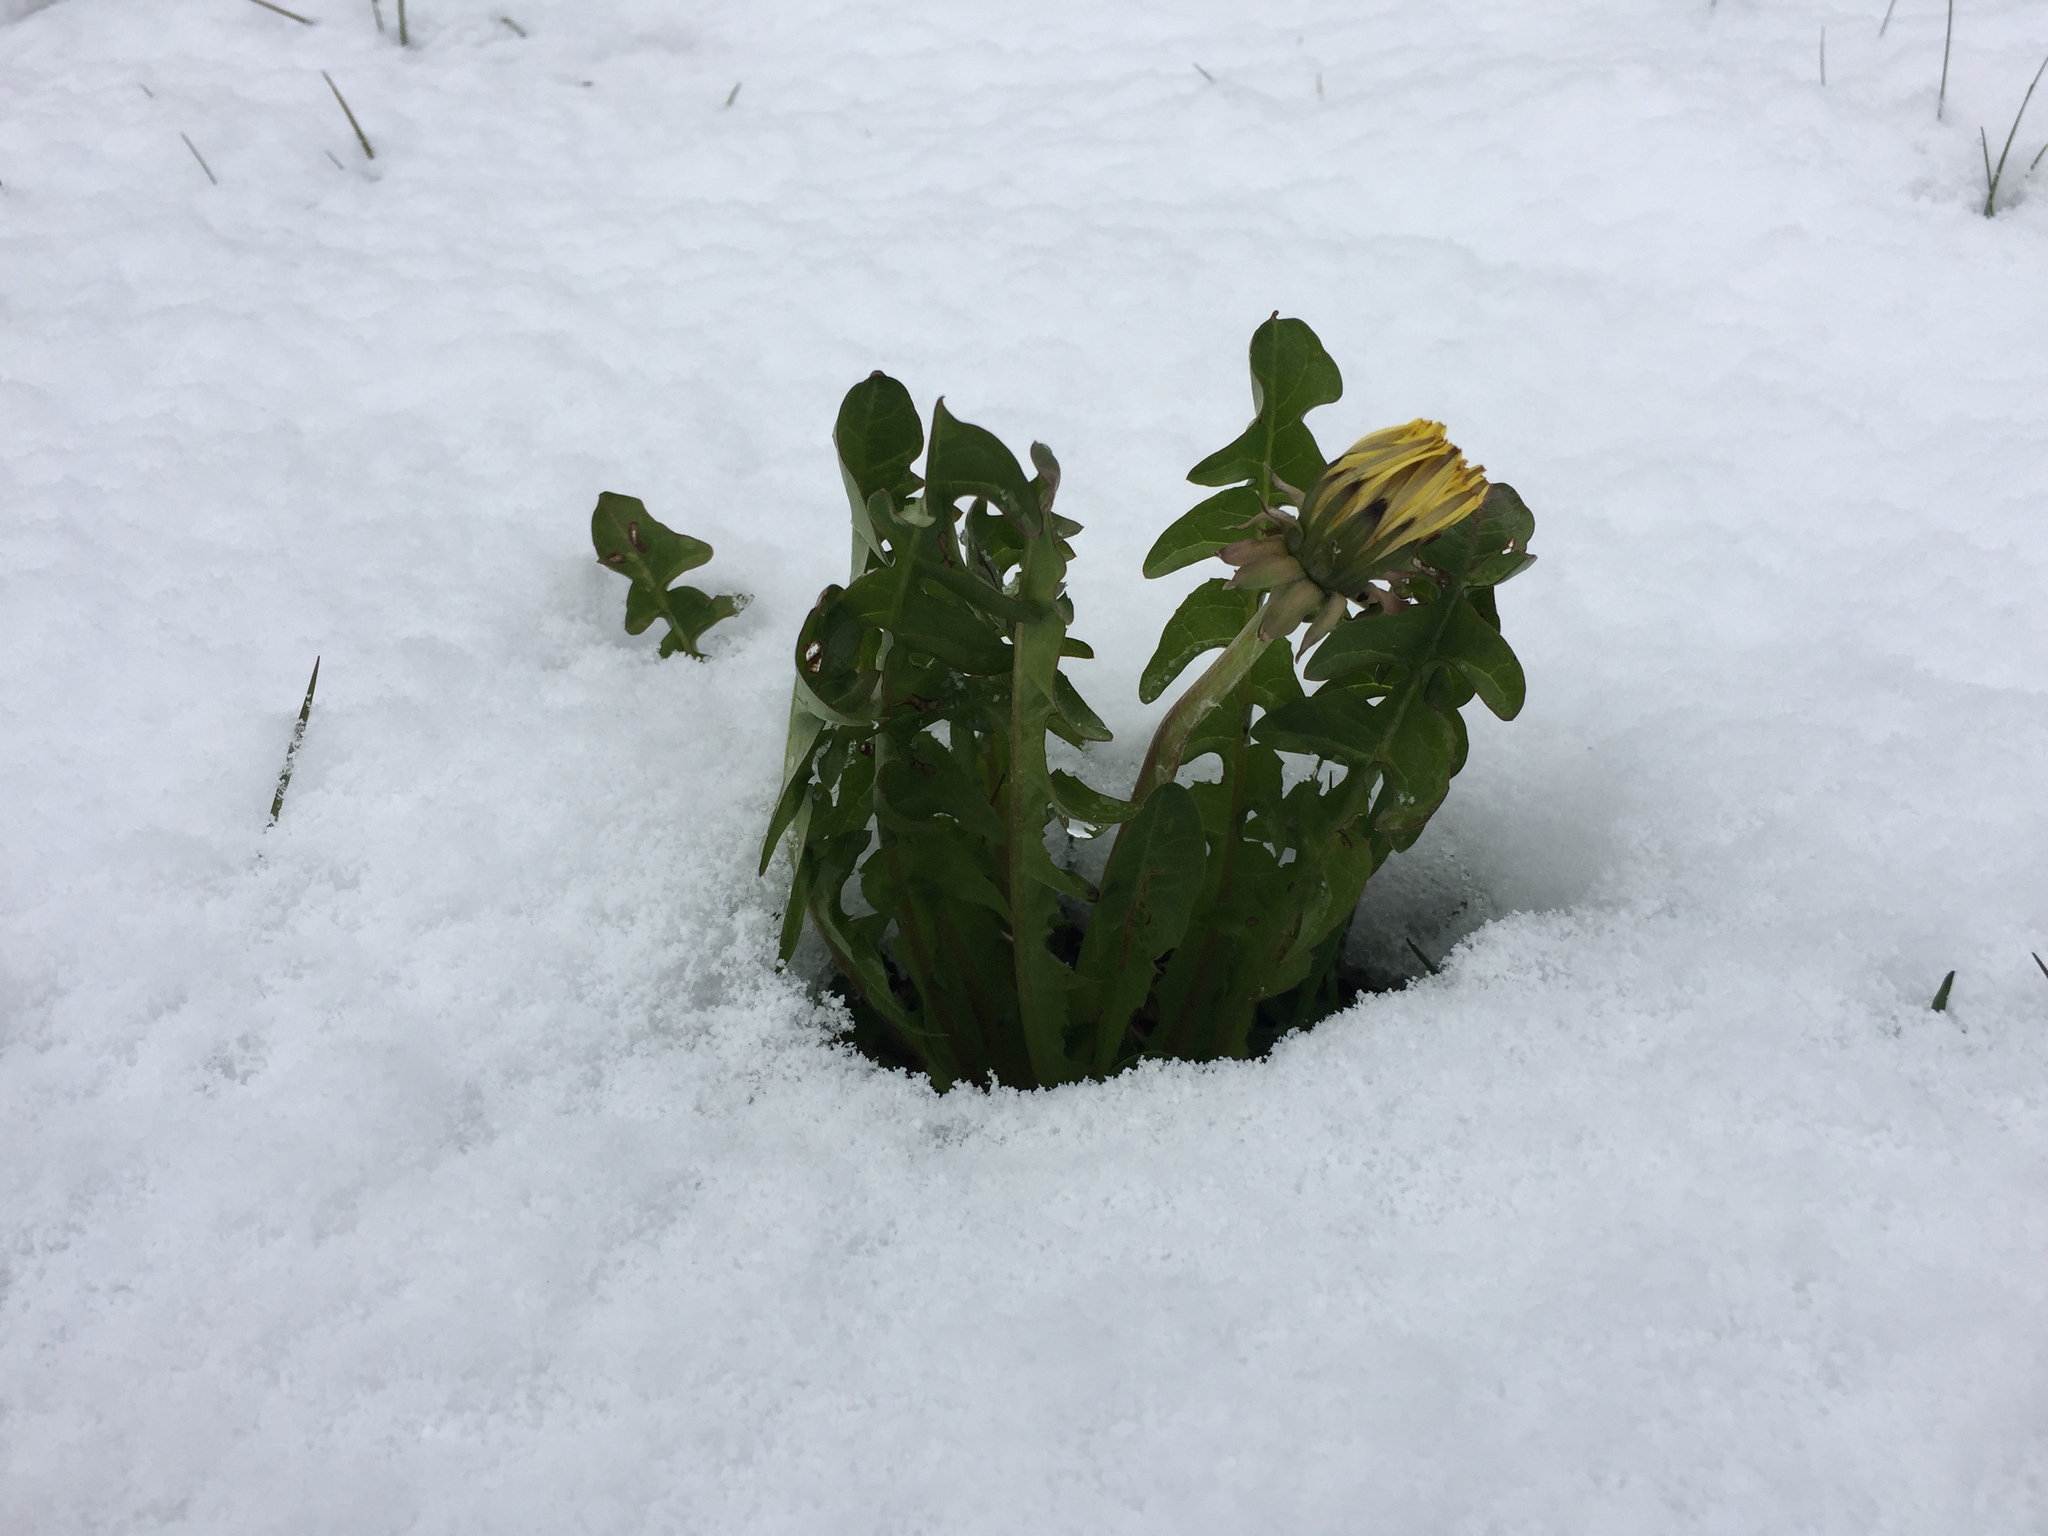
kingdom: Plantae
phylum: Tracheophyta
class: Magnoliopsida
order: Asterales
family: Asteraceae
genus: Taraxacum
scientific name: Taraxacum officinale
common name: Common dandelion
